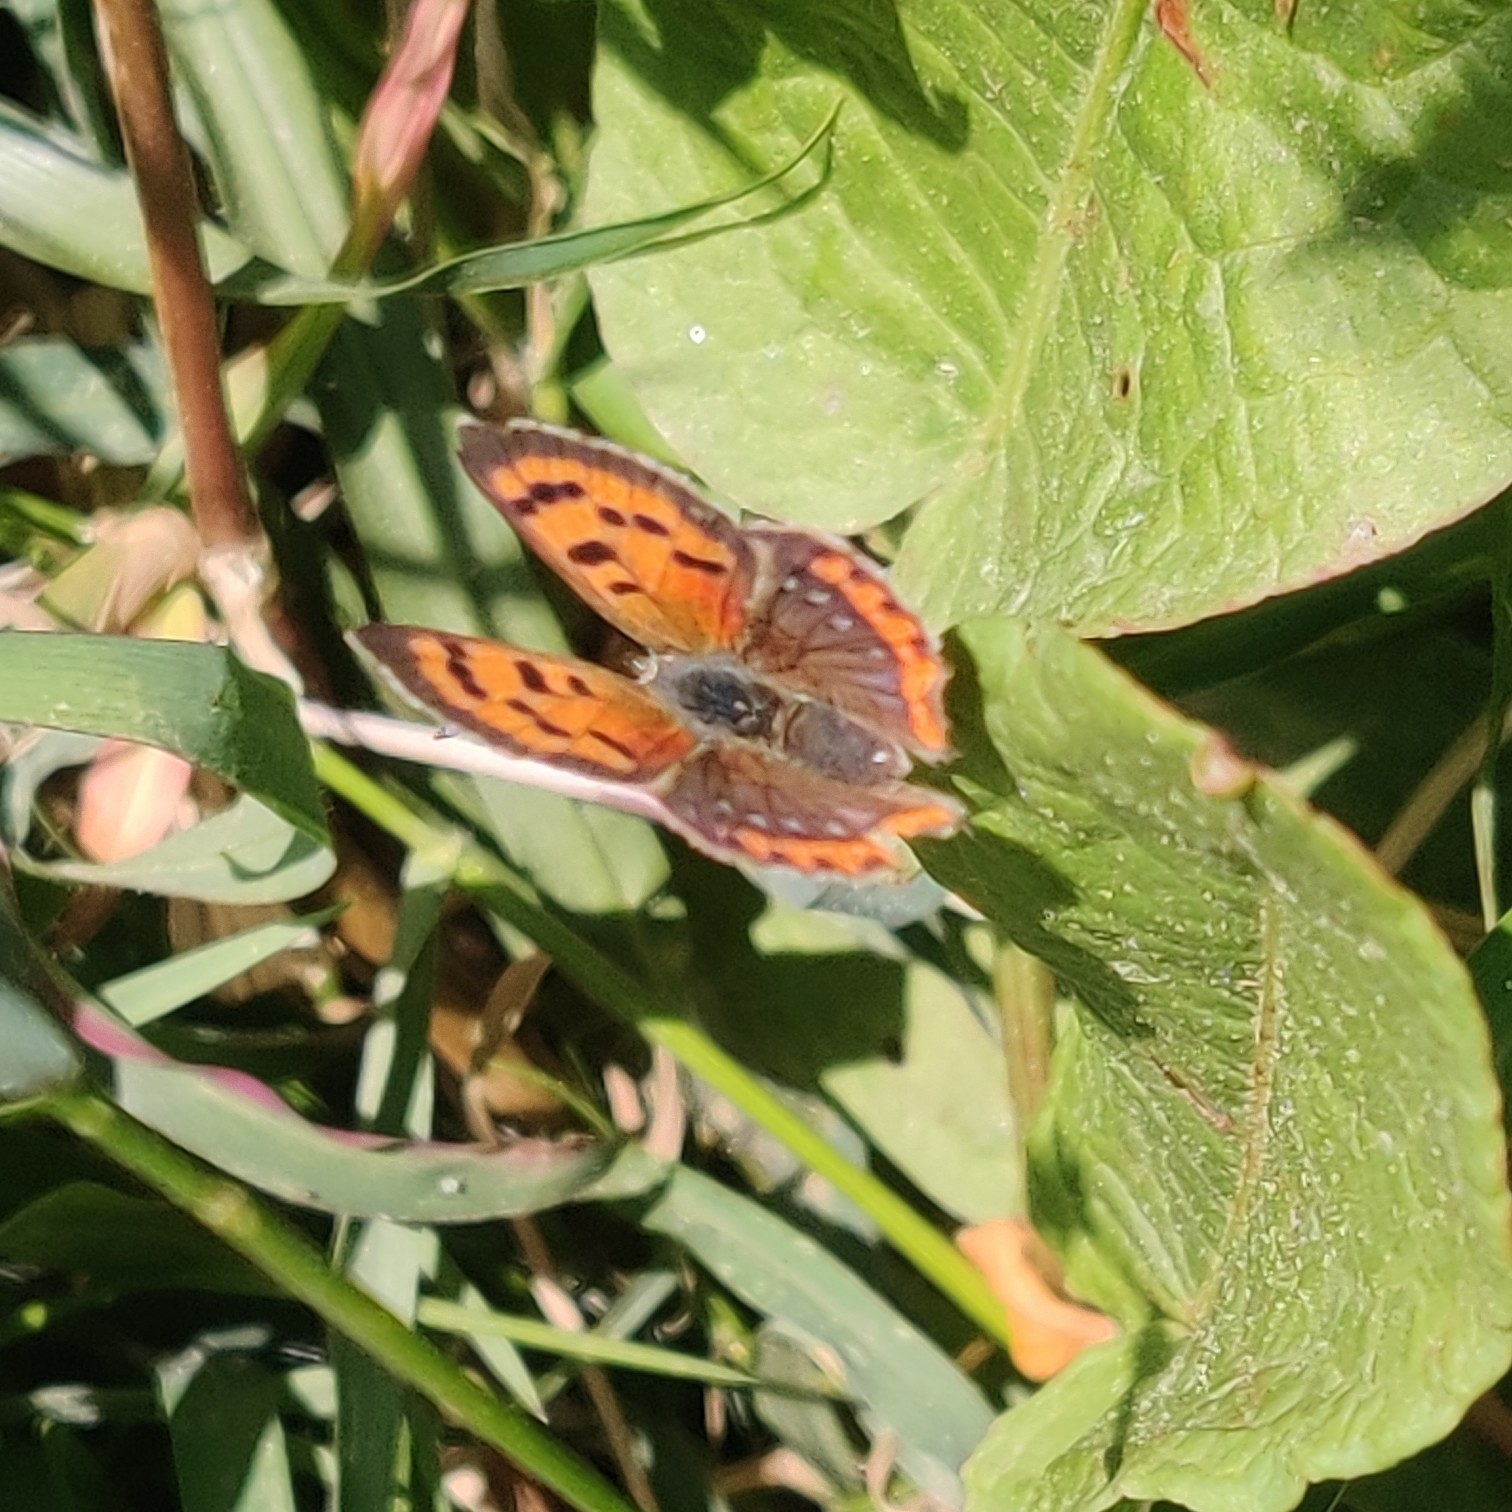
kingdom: Animalia
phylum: Arthropoda
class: Insecta
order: Lepidoptera
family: Lycaenidae
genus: Lycaena
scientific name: Lycaena phlaeas
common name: Small copper
